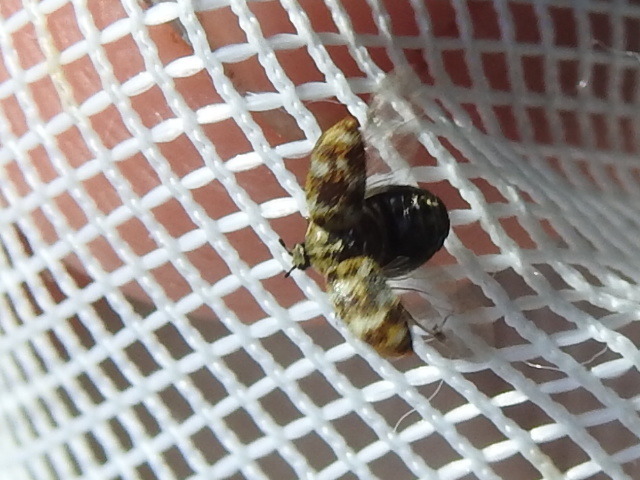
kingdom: Animalia
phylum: Arthropoda
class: Insecta
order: Coleoptera
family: Dermestidae
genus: Anthrenus
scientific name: Anthrenus verbasci
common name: Varied carpet beetle
